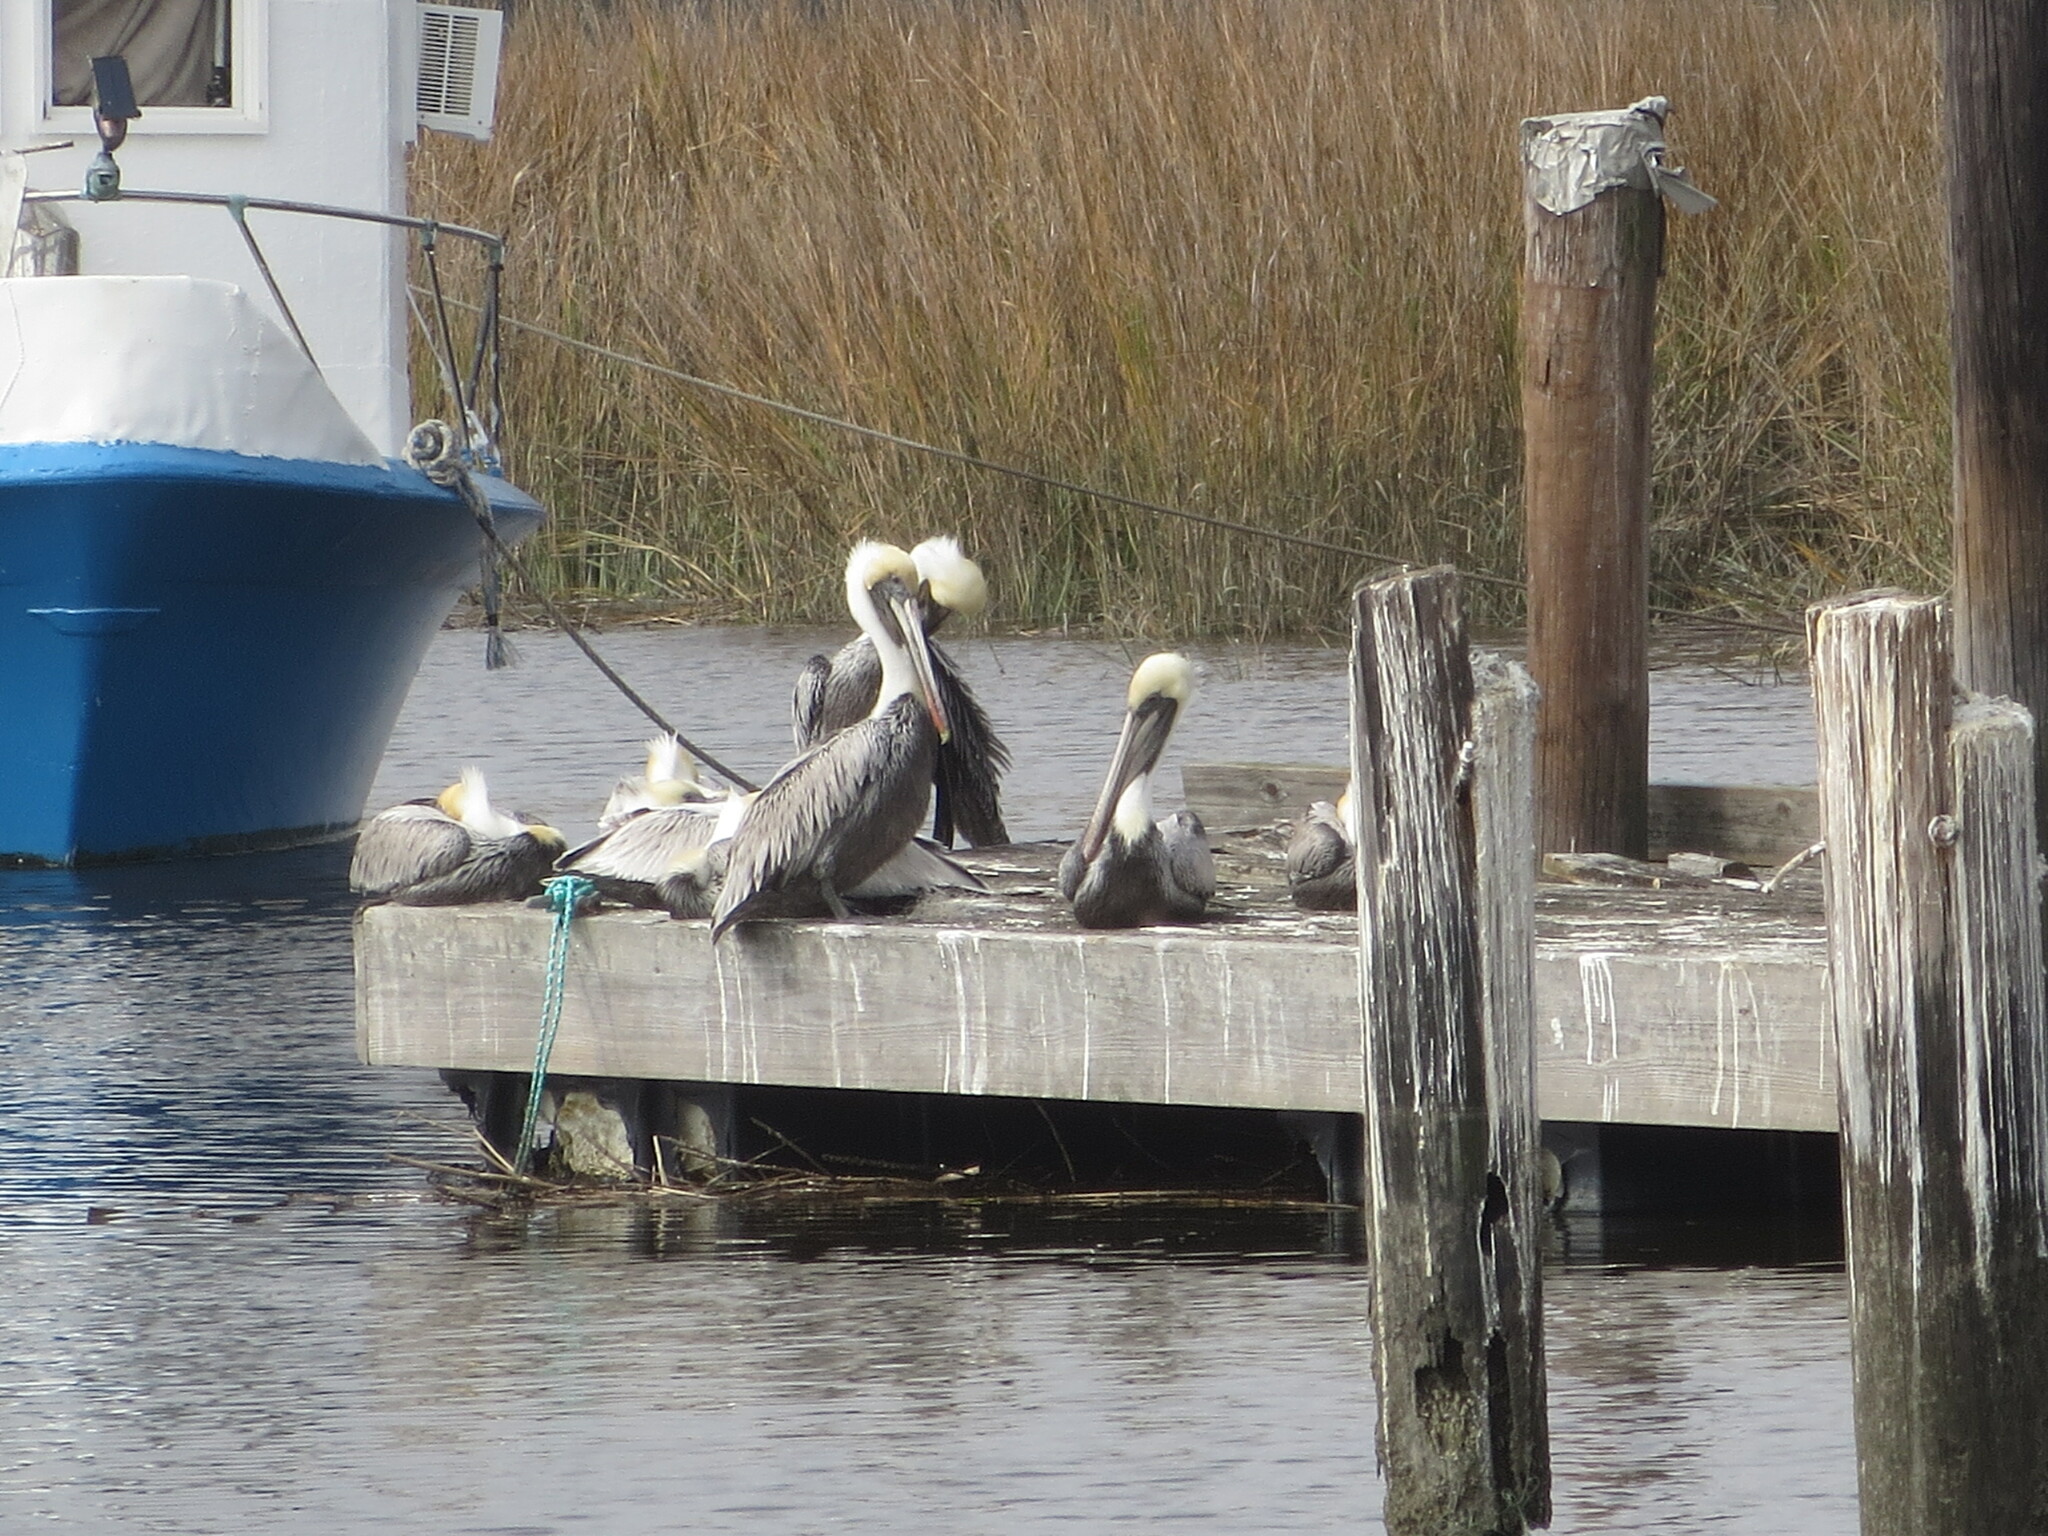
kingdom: Animalia
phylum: Chordata
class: Aves
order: Pelecaniformes
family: Pelecanidae
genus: Pelecanus
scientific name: Pelecanus occidentalis
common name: Brown pelican
